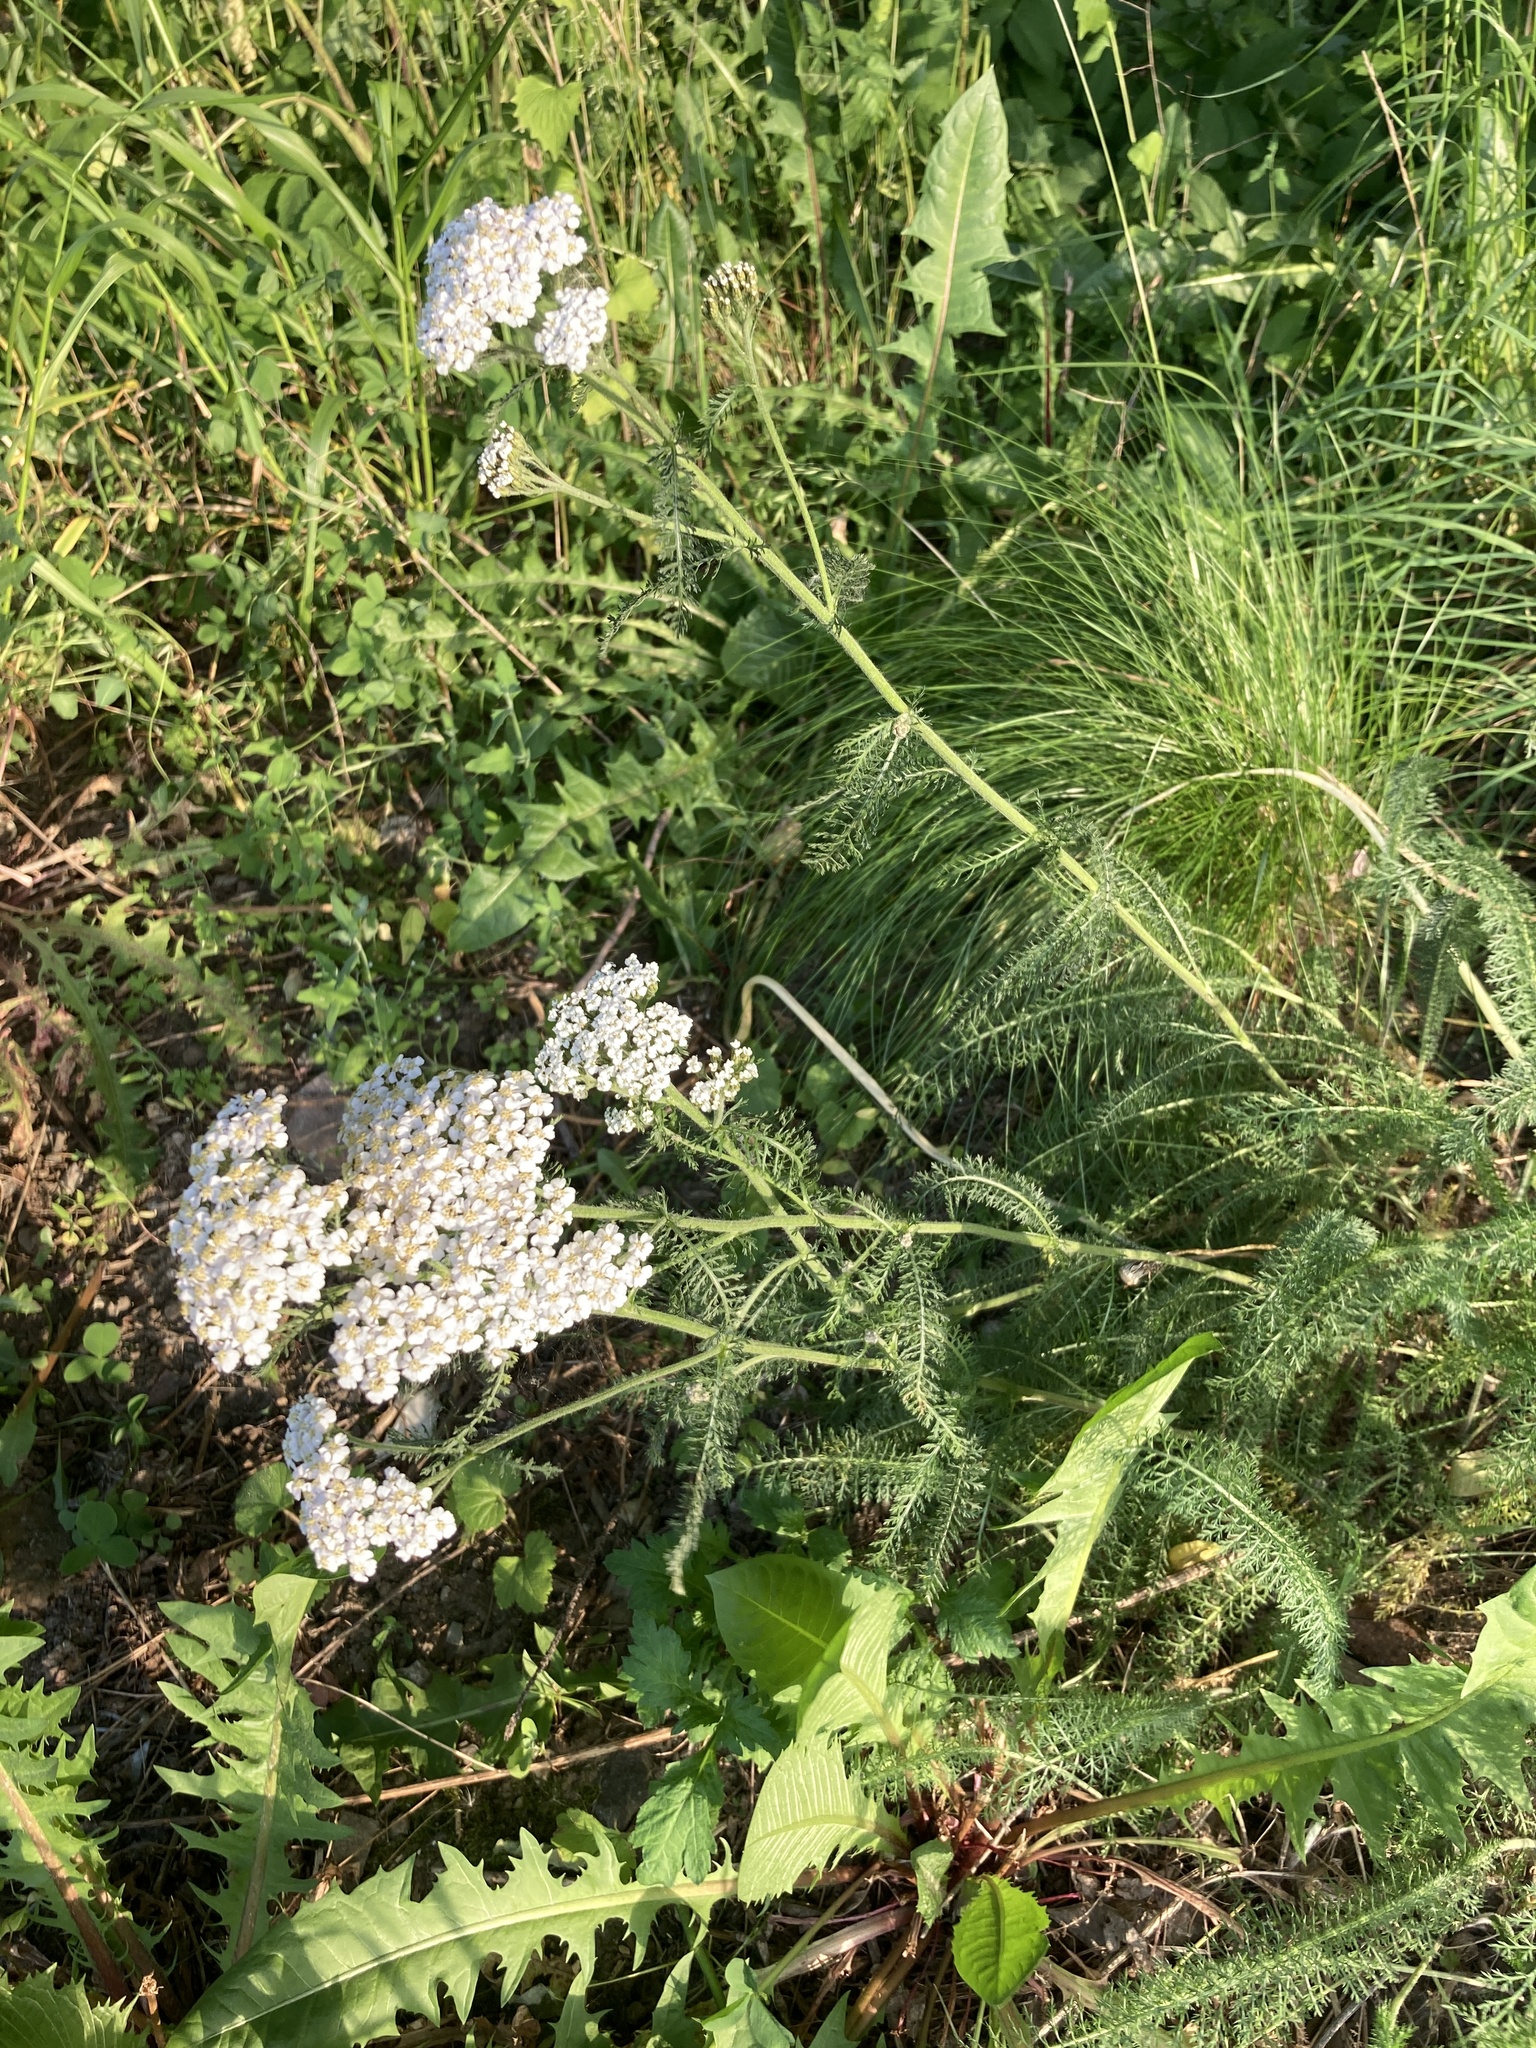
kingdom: Plantae
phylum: Tracheophyta
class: Magnoliopsida
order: Asterales
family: Asteraceae
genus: Achillea
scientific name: Achillea millefolium
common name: Yarrow
